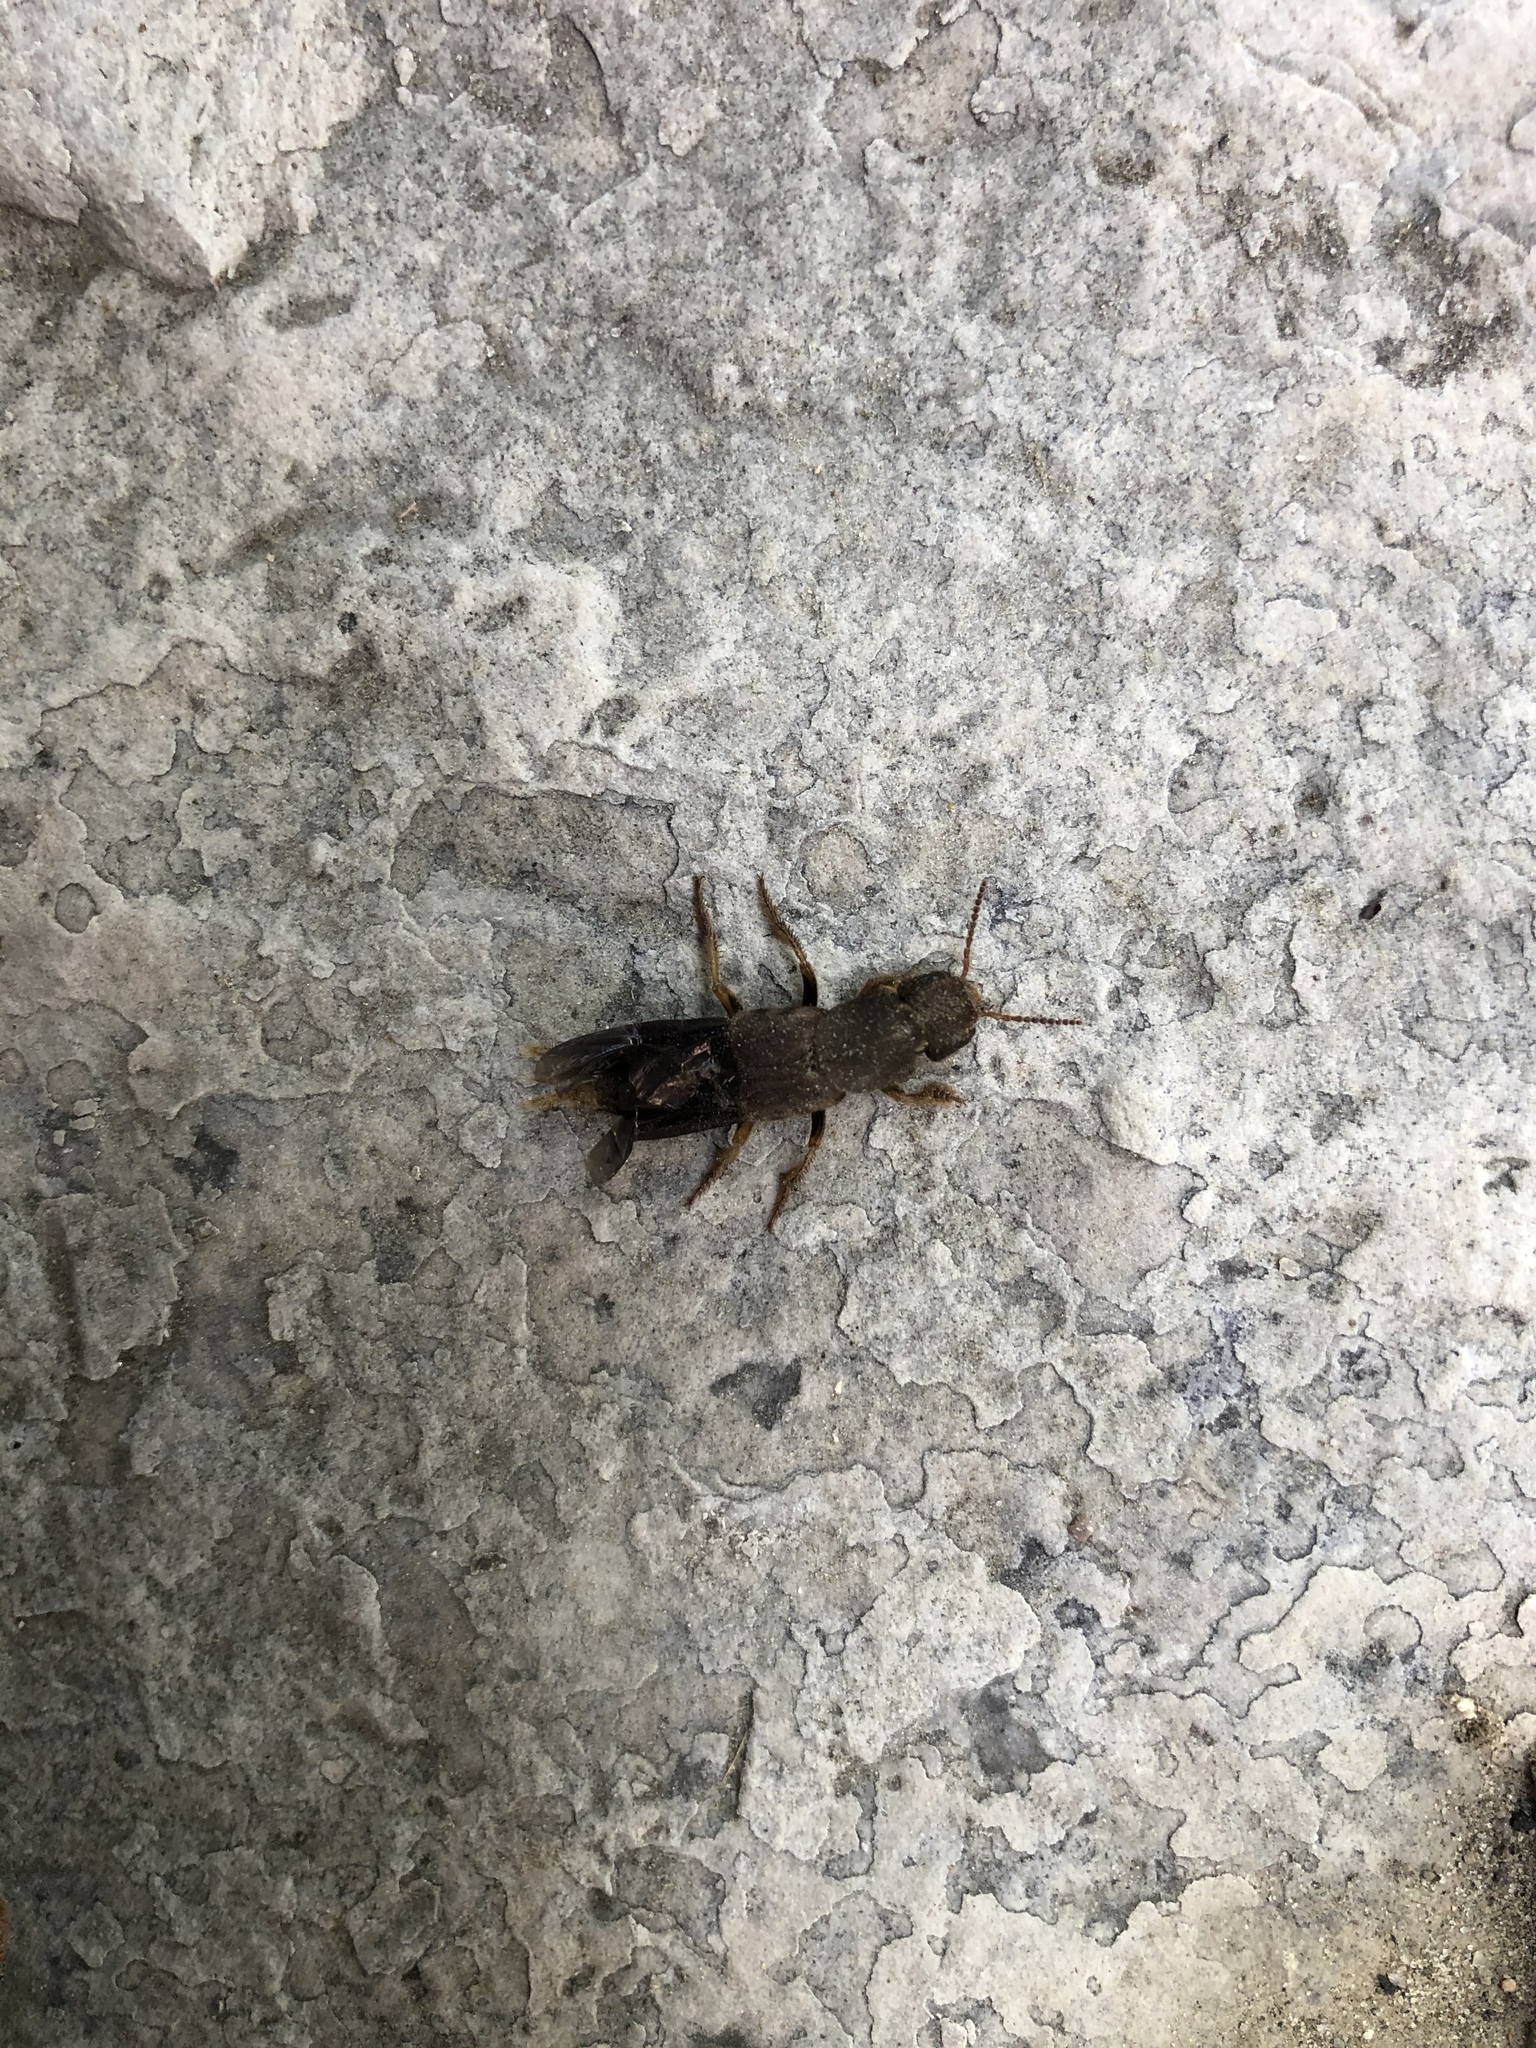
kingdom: Animalia
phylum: Arthropoda
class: Insecta
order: Coleoptera
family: Staphylinidae
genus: Platydracus
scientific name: Platydracus maculosus
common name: Brown rove beetle
